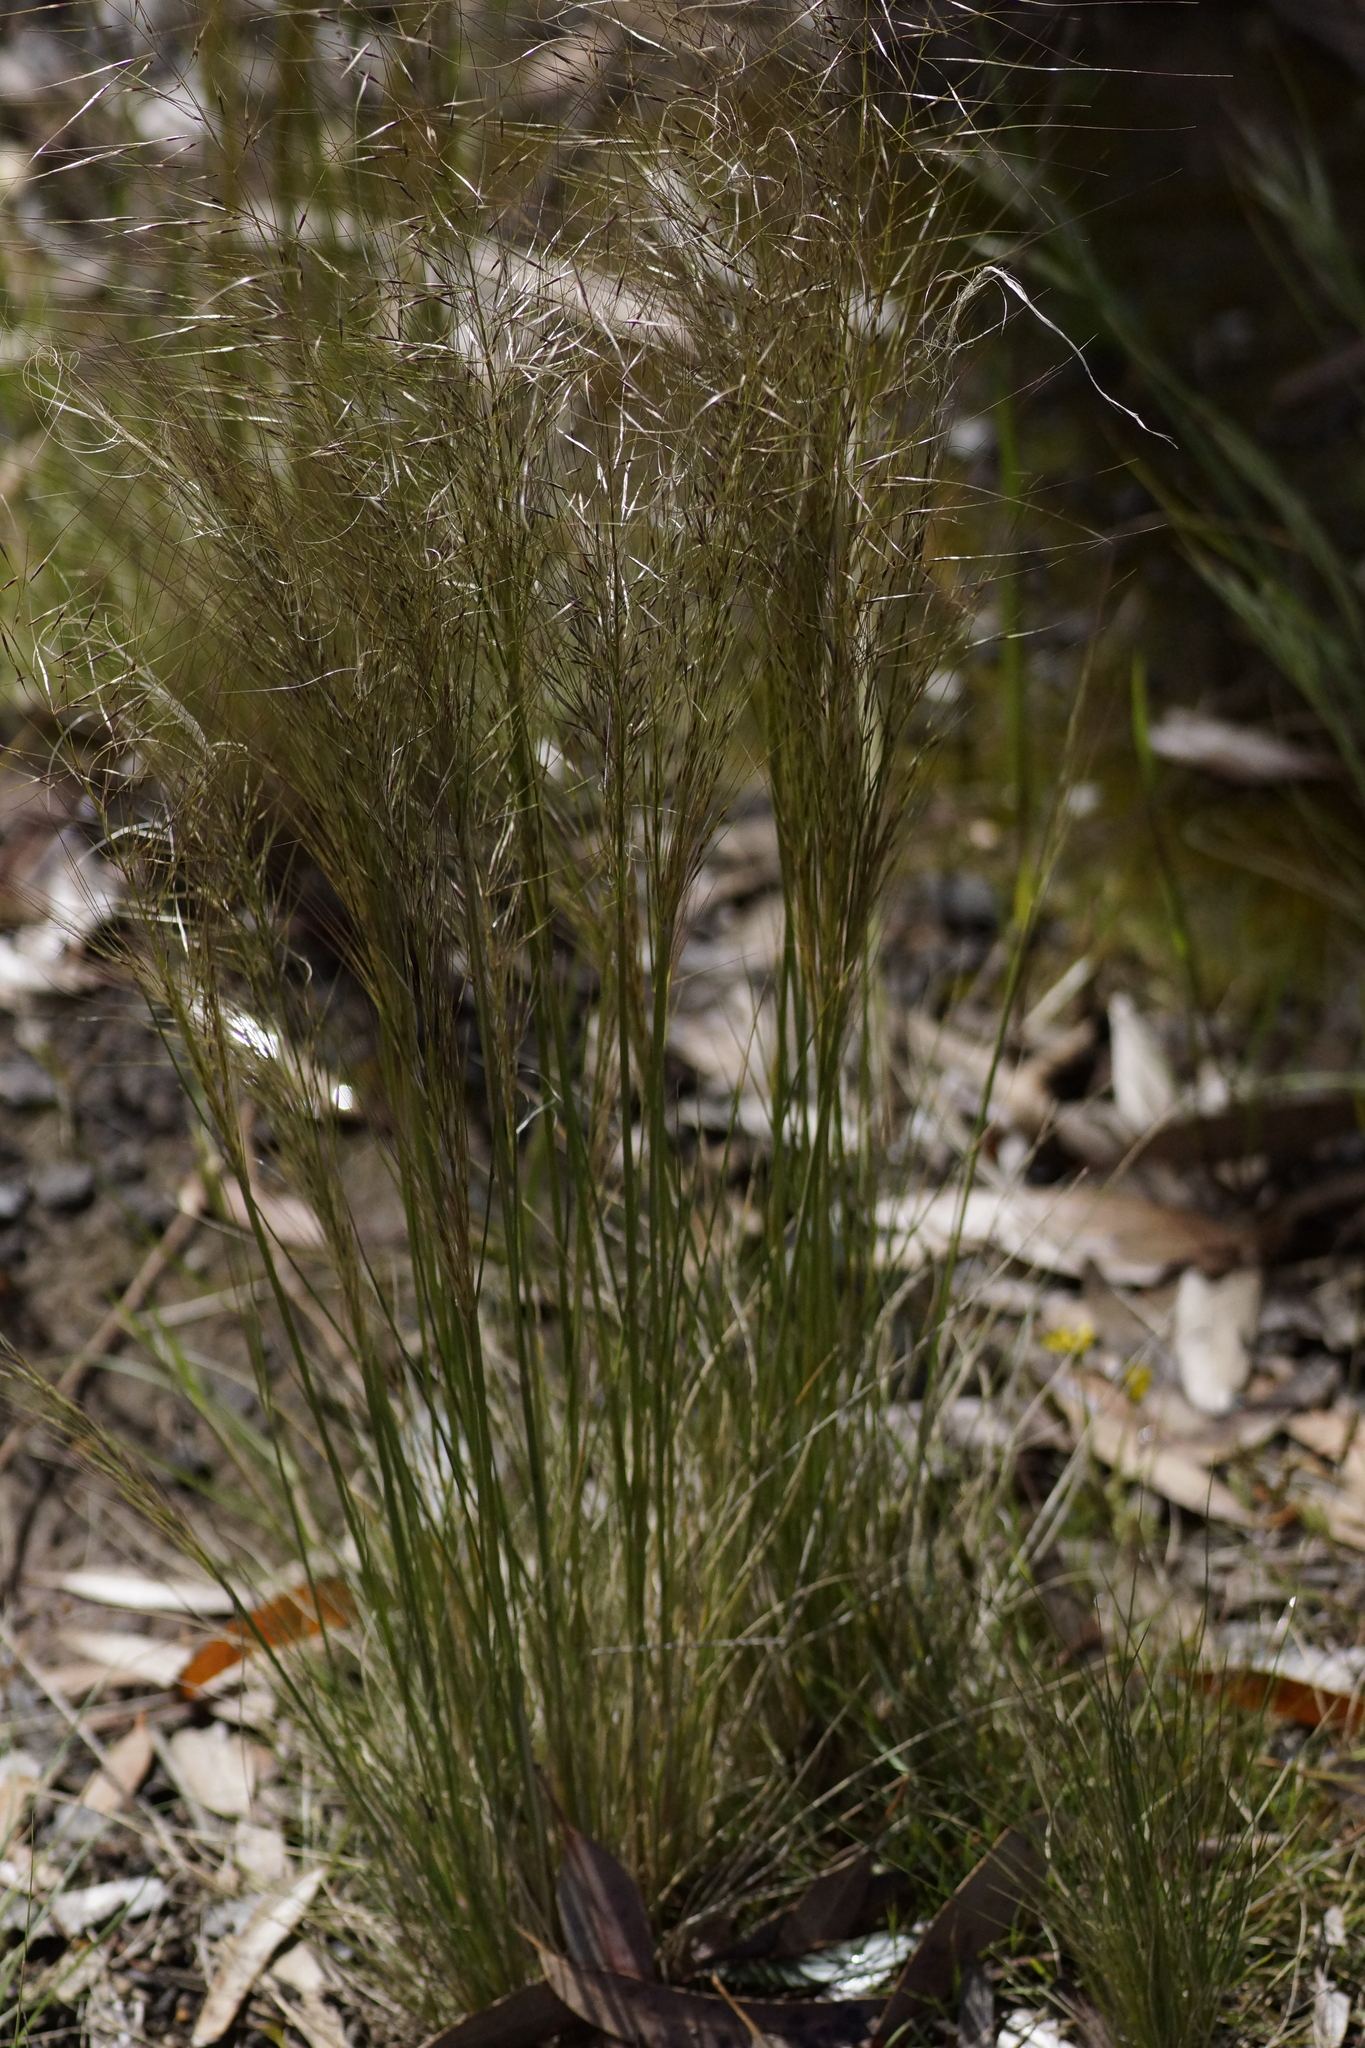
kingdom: Plantae
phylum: Tracheophyta
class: Liliopsida
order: Poales
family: Poaceae
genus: Austrostipa
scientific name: Austrostipa mollis
